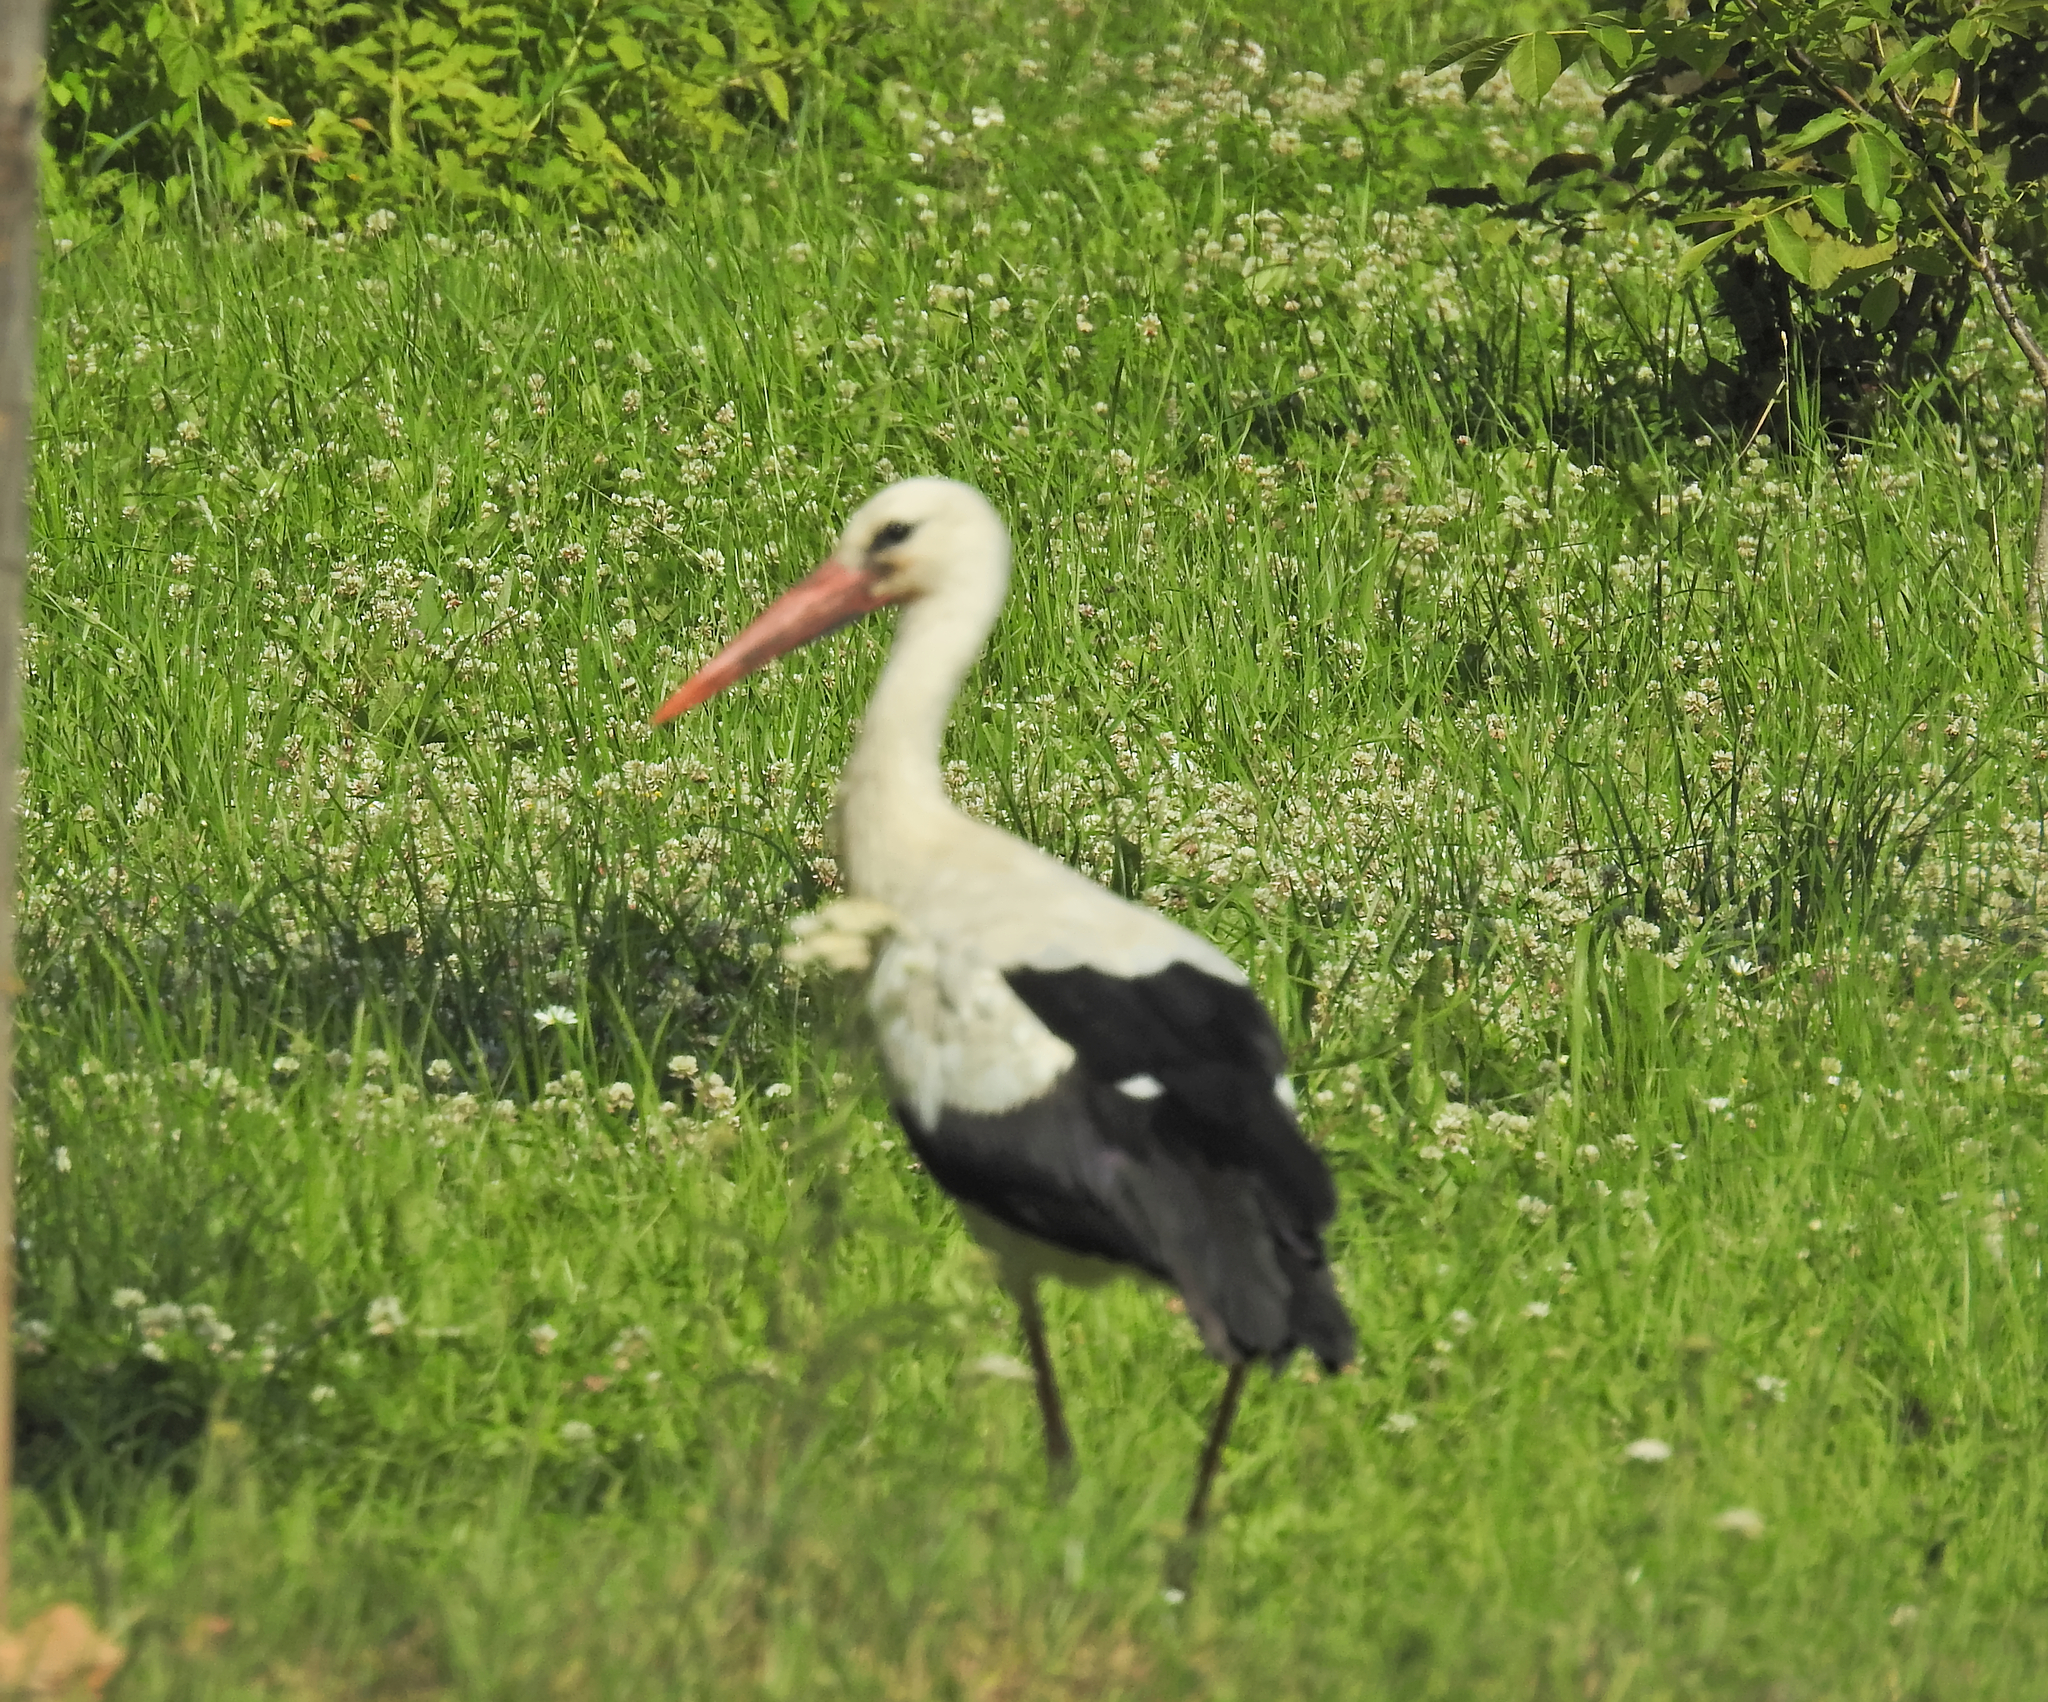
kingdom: Animalia
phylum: Chordata
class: Aves
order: Ciconiiformes
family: Ciconiidae
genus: Ciconia
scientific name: Ciconia ciconia
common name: White stork
